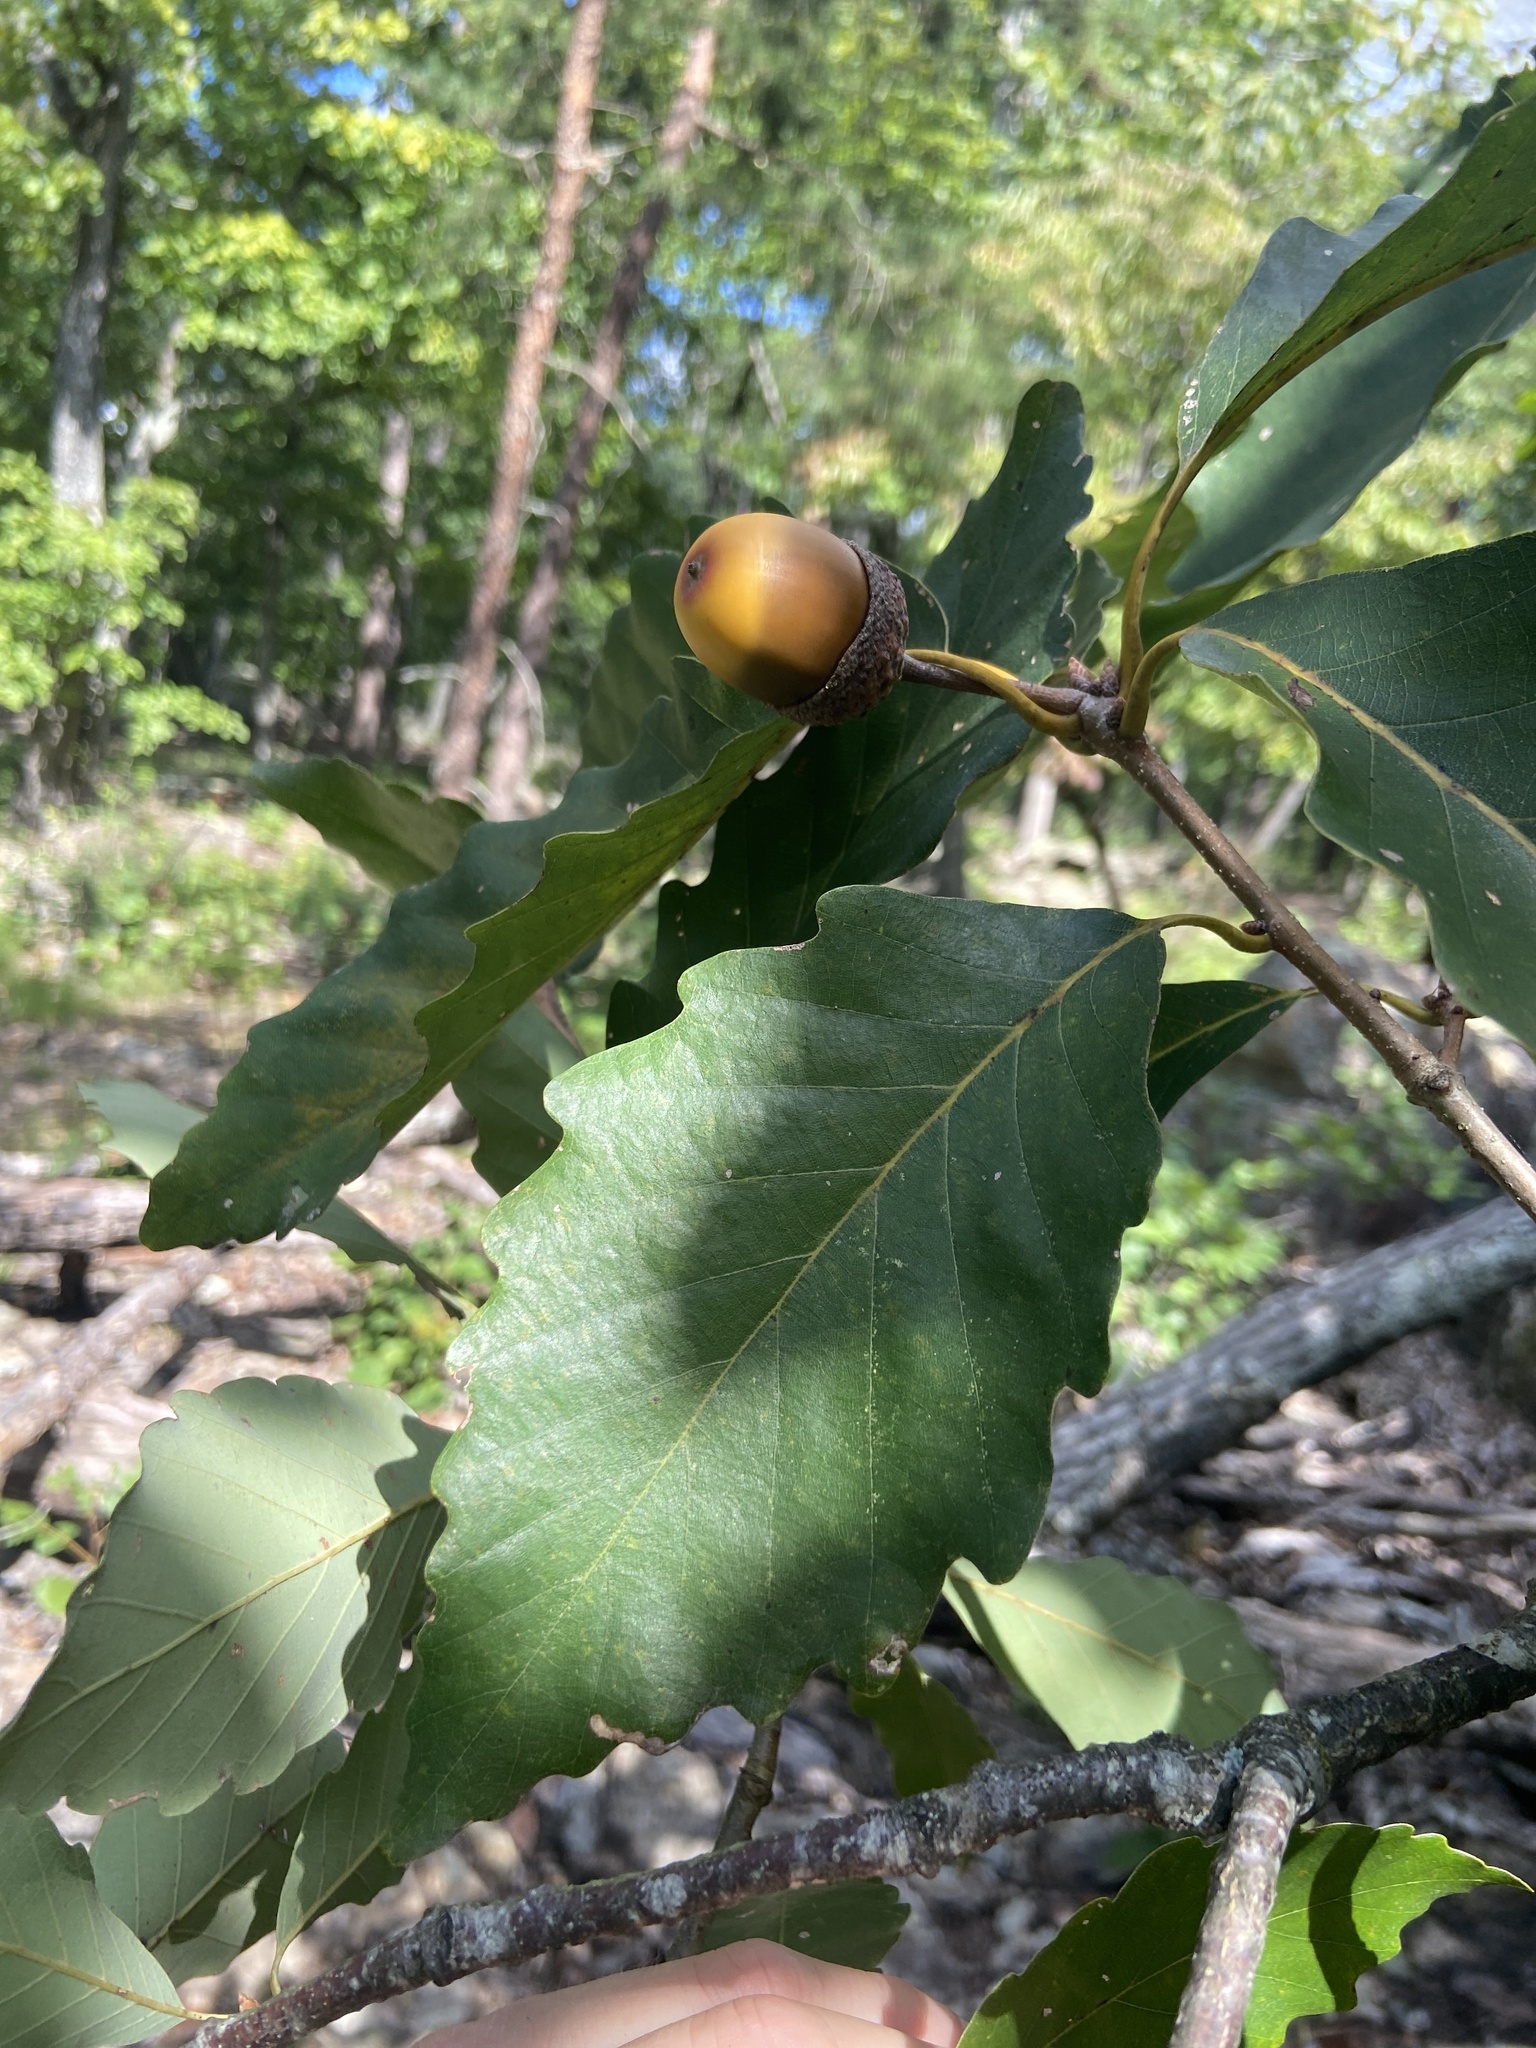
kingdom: Plantae
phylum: Tracheophyta
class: Magnoliopsida
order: Fagales
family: Fagaceae
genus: Quercus
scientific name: Quercus montana
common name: Chestnut oak
